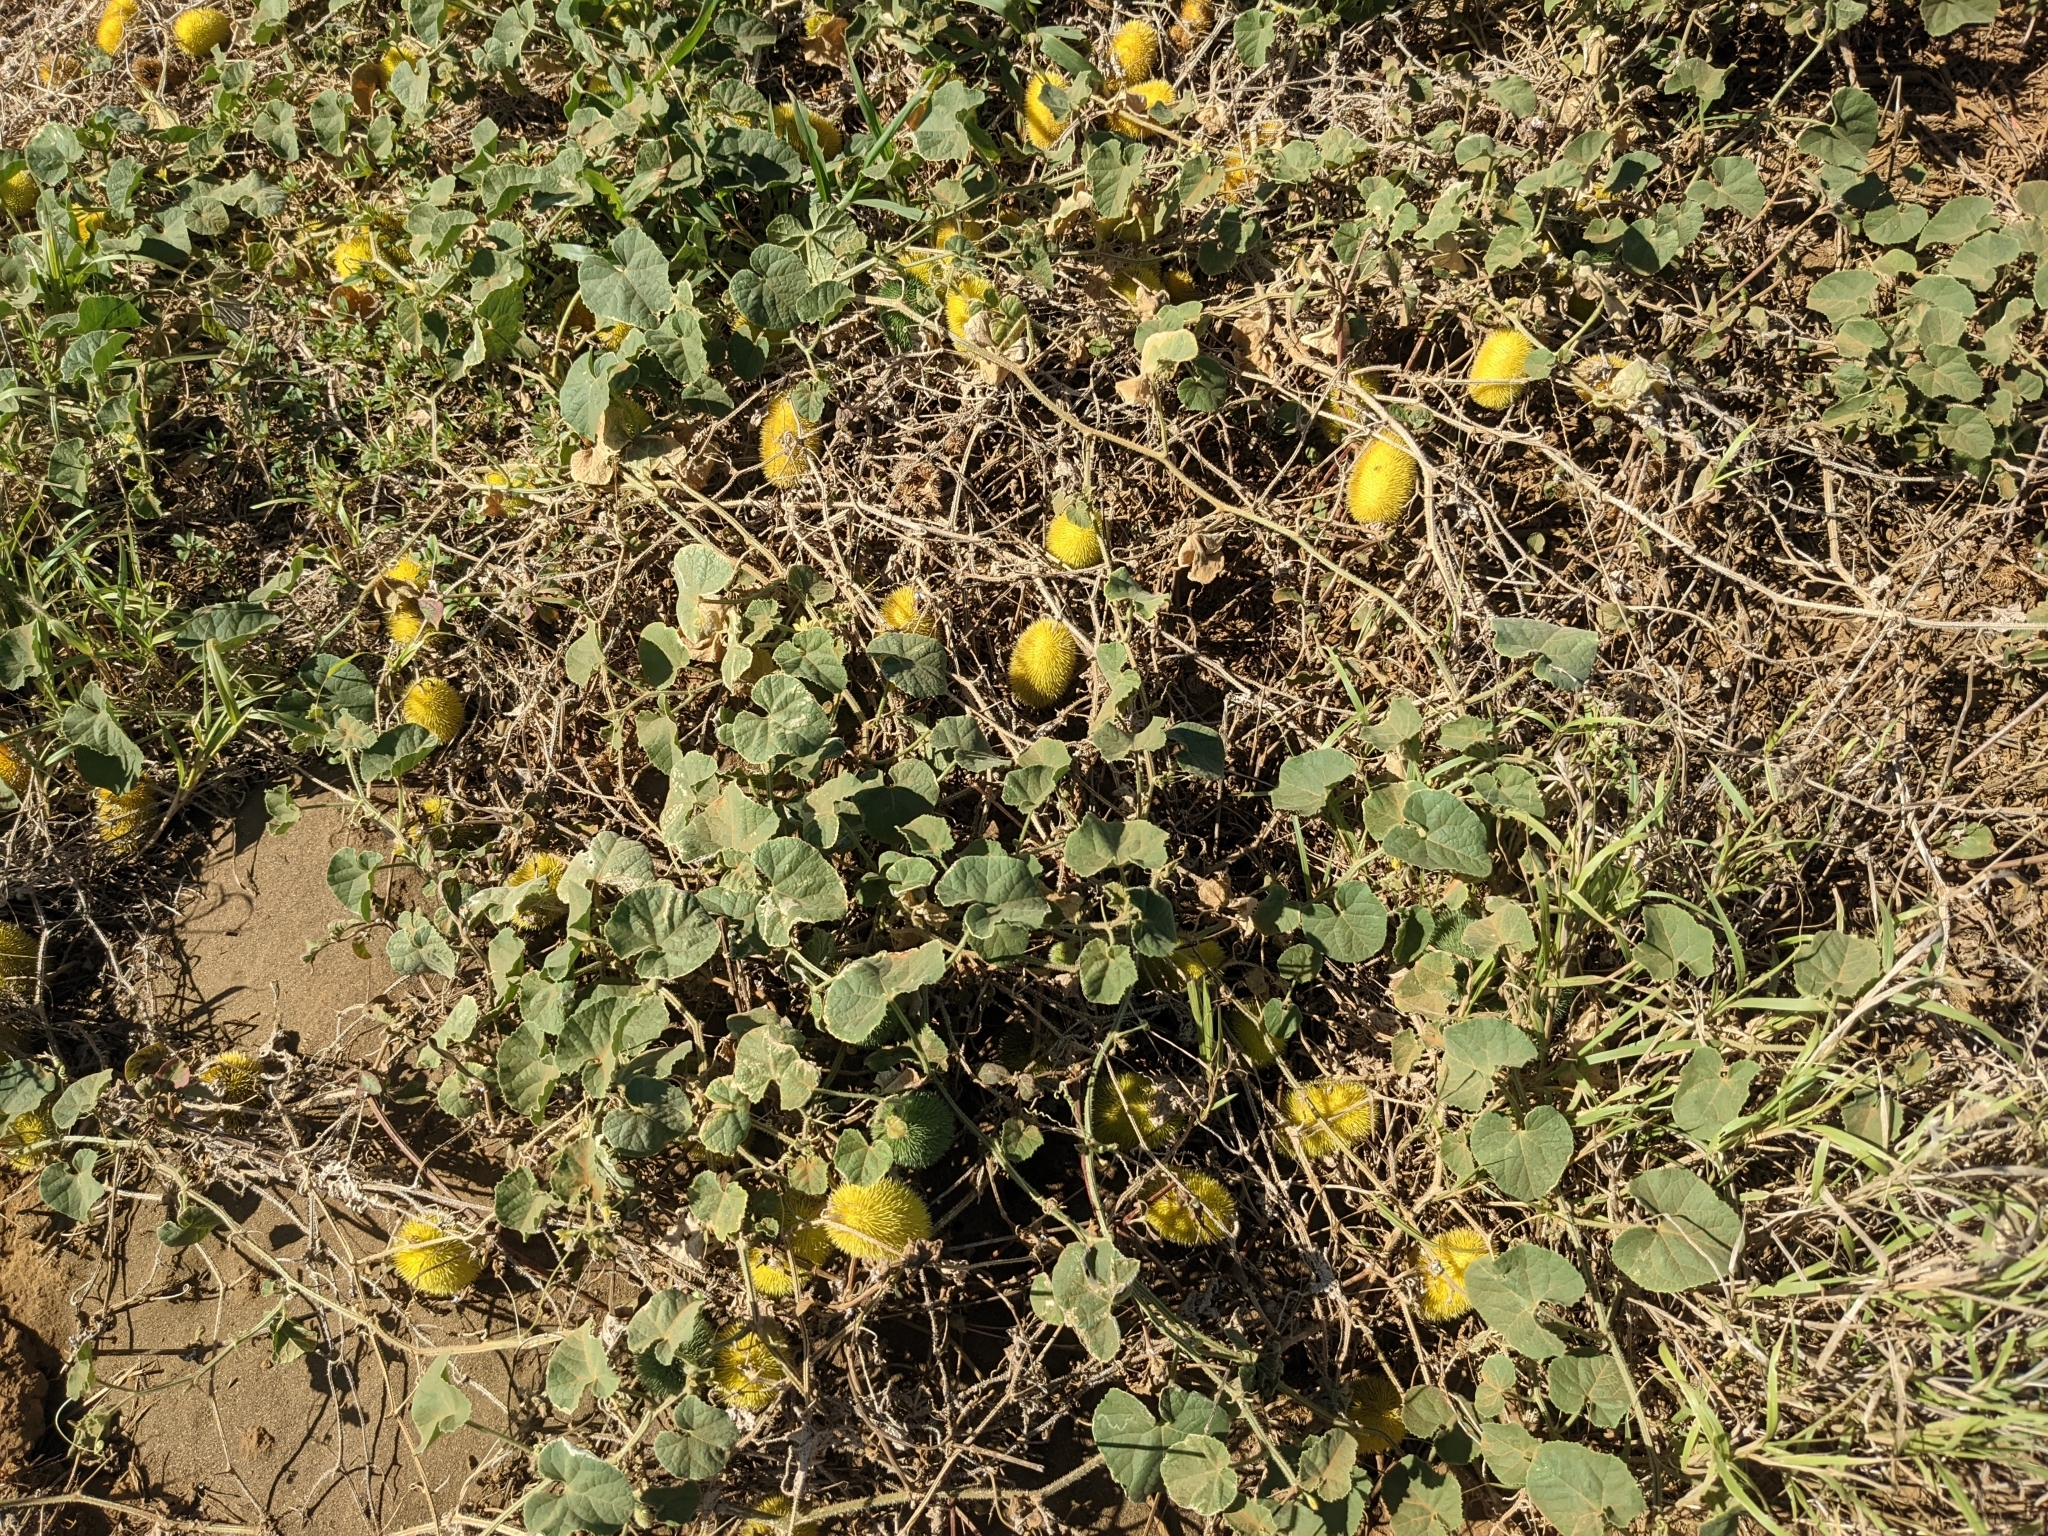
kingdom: Plantae
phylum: Tracheophyta
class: Magnoliopsida
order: Cucurbitales
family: Cucurbitaceae
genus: Cucumis
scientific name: Cucumis dipsaceus
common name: Hedgehog gourd
